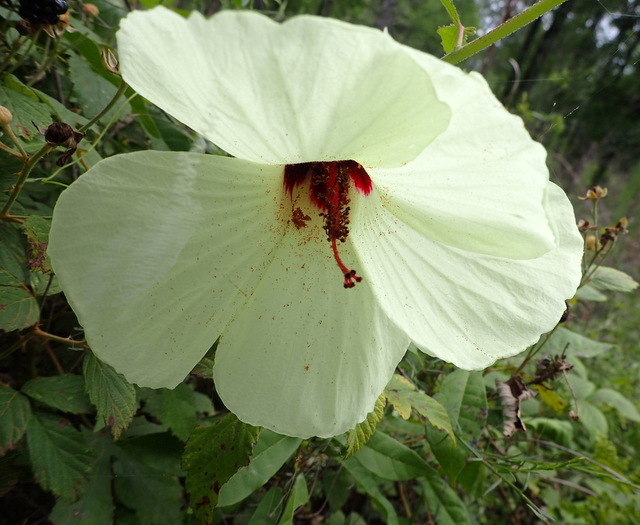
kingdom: Plantae
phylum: Tracheophyta
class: Magnoliopsida
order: Malvales
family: Malvaceae
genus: Hibiscus
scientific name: Hibiscus aculeatus
